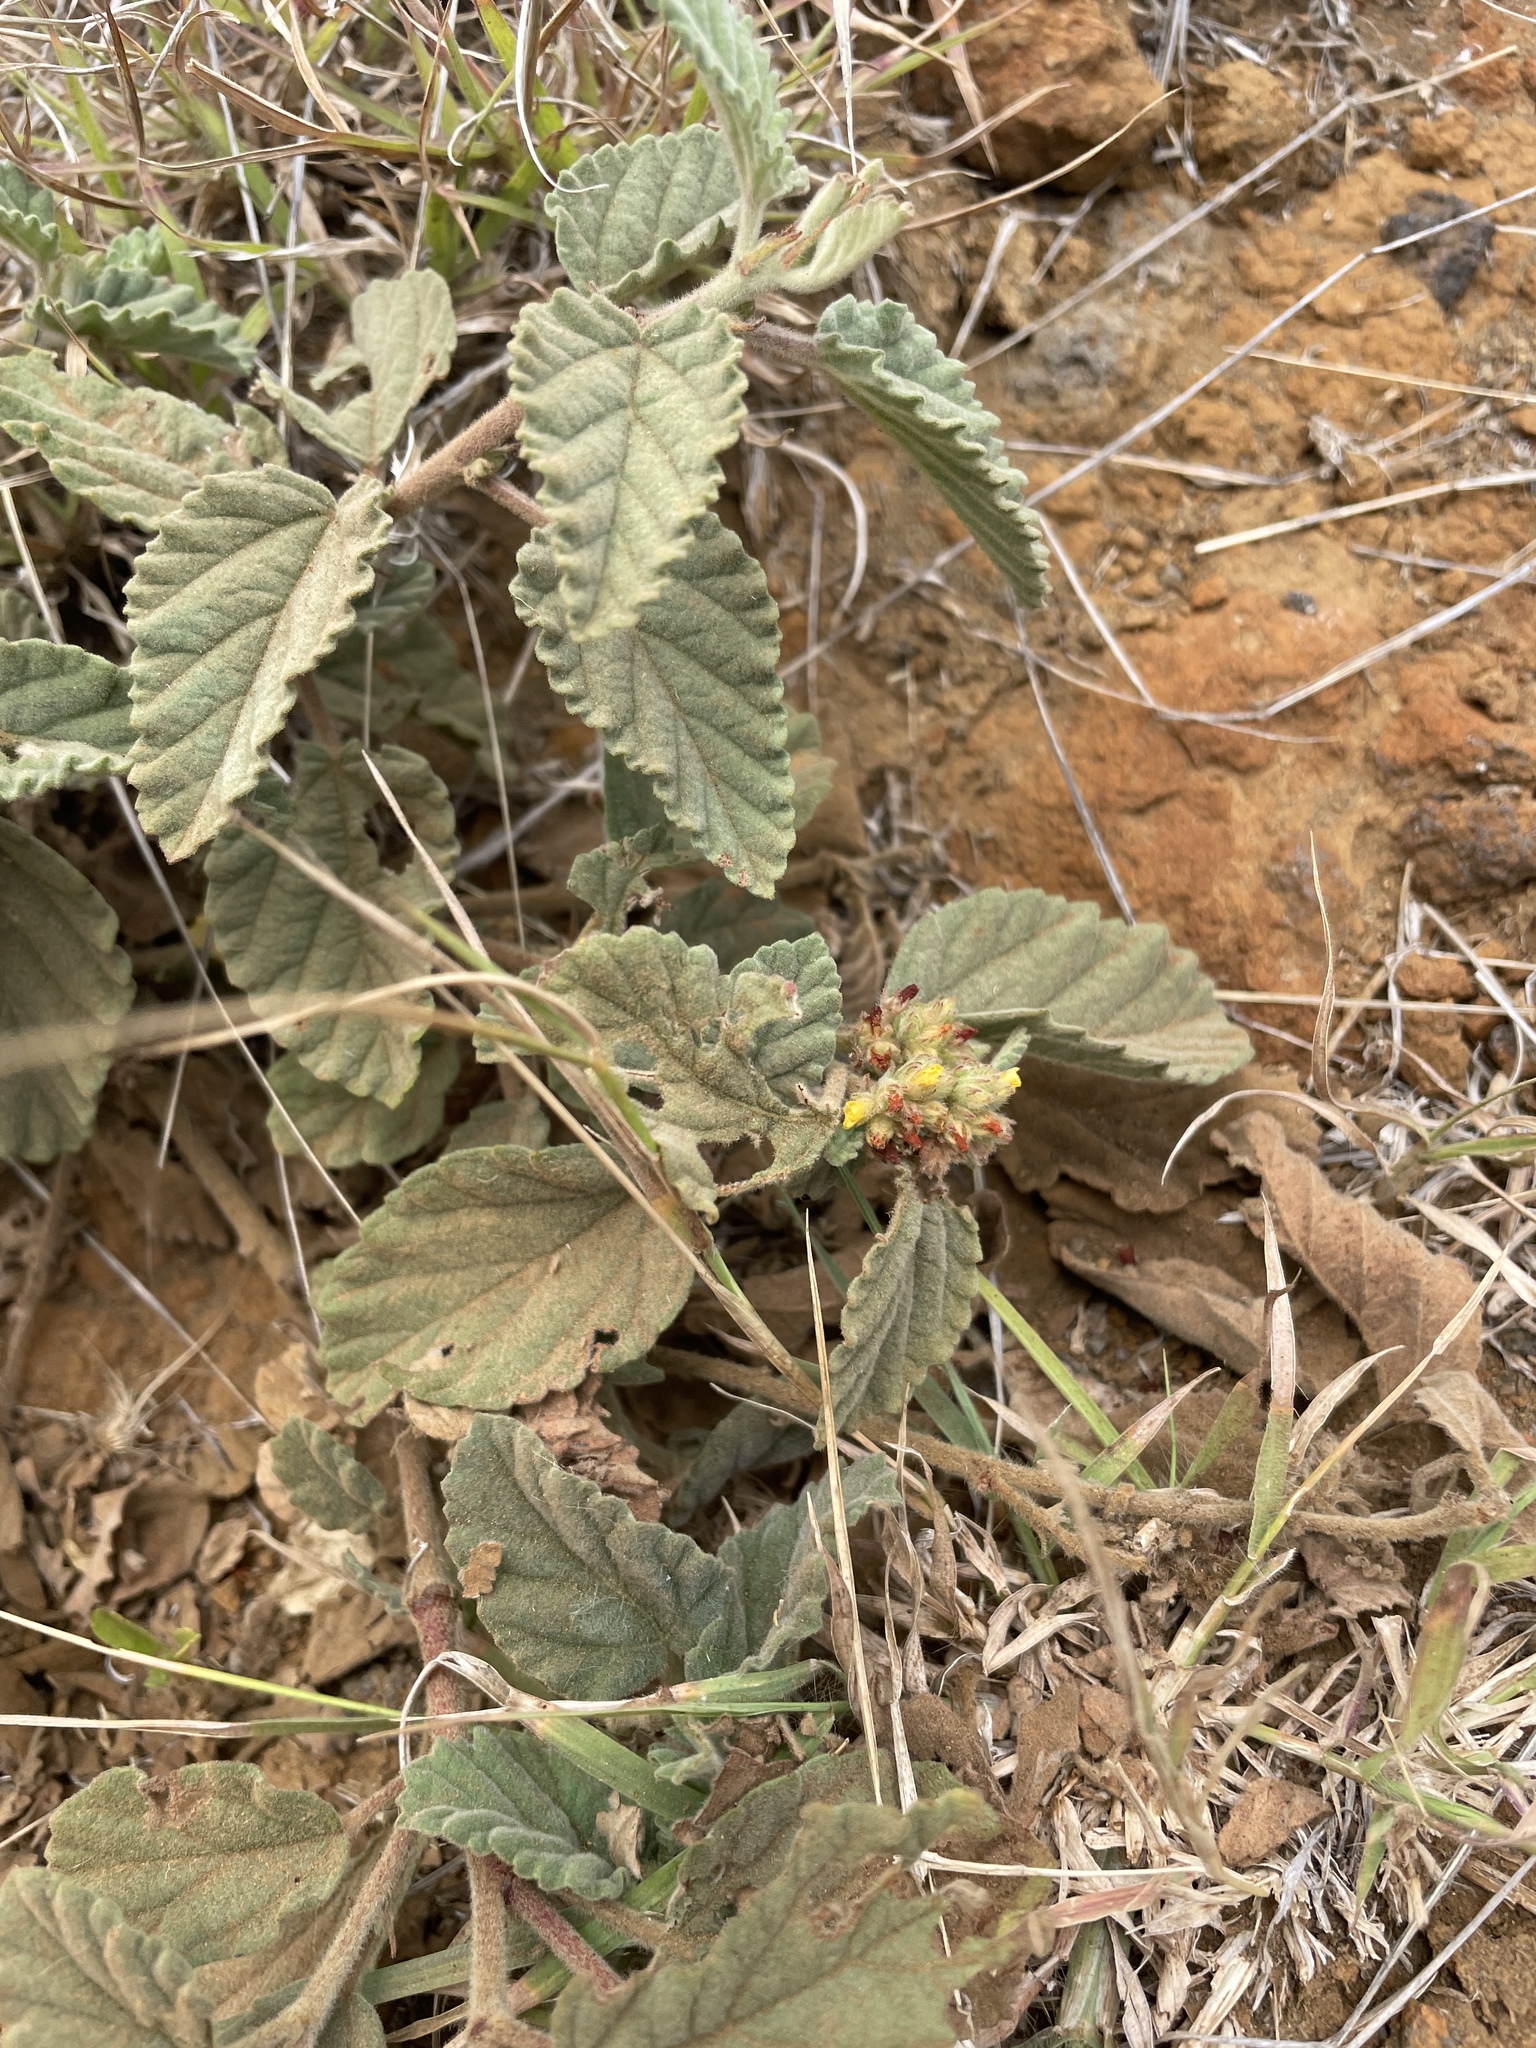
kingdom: Plantae
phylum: Tracheophyta
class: Magnoliopsida
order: Malvales
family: Malvaceae
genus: Waltheria
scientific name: Waltheria indica
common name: Leather-coat
